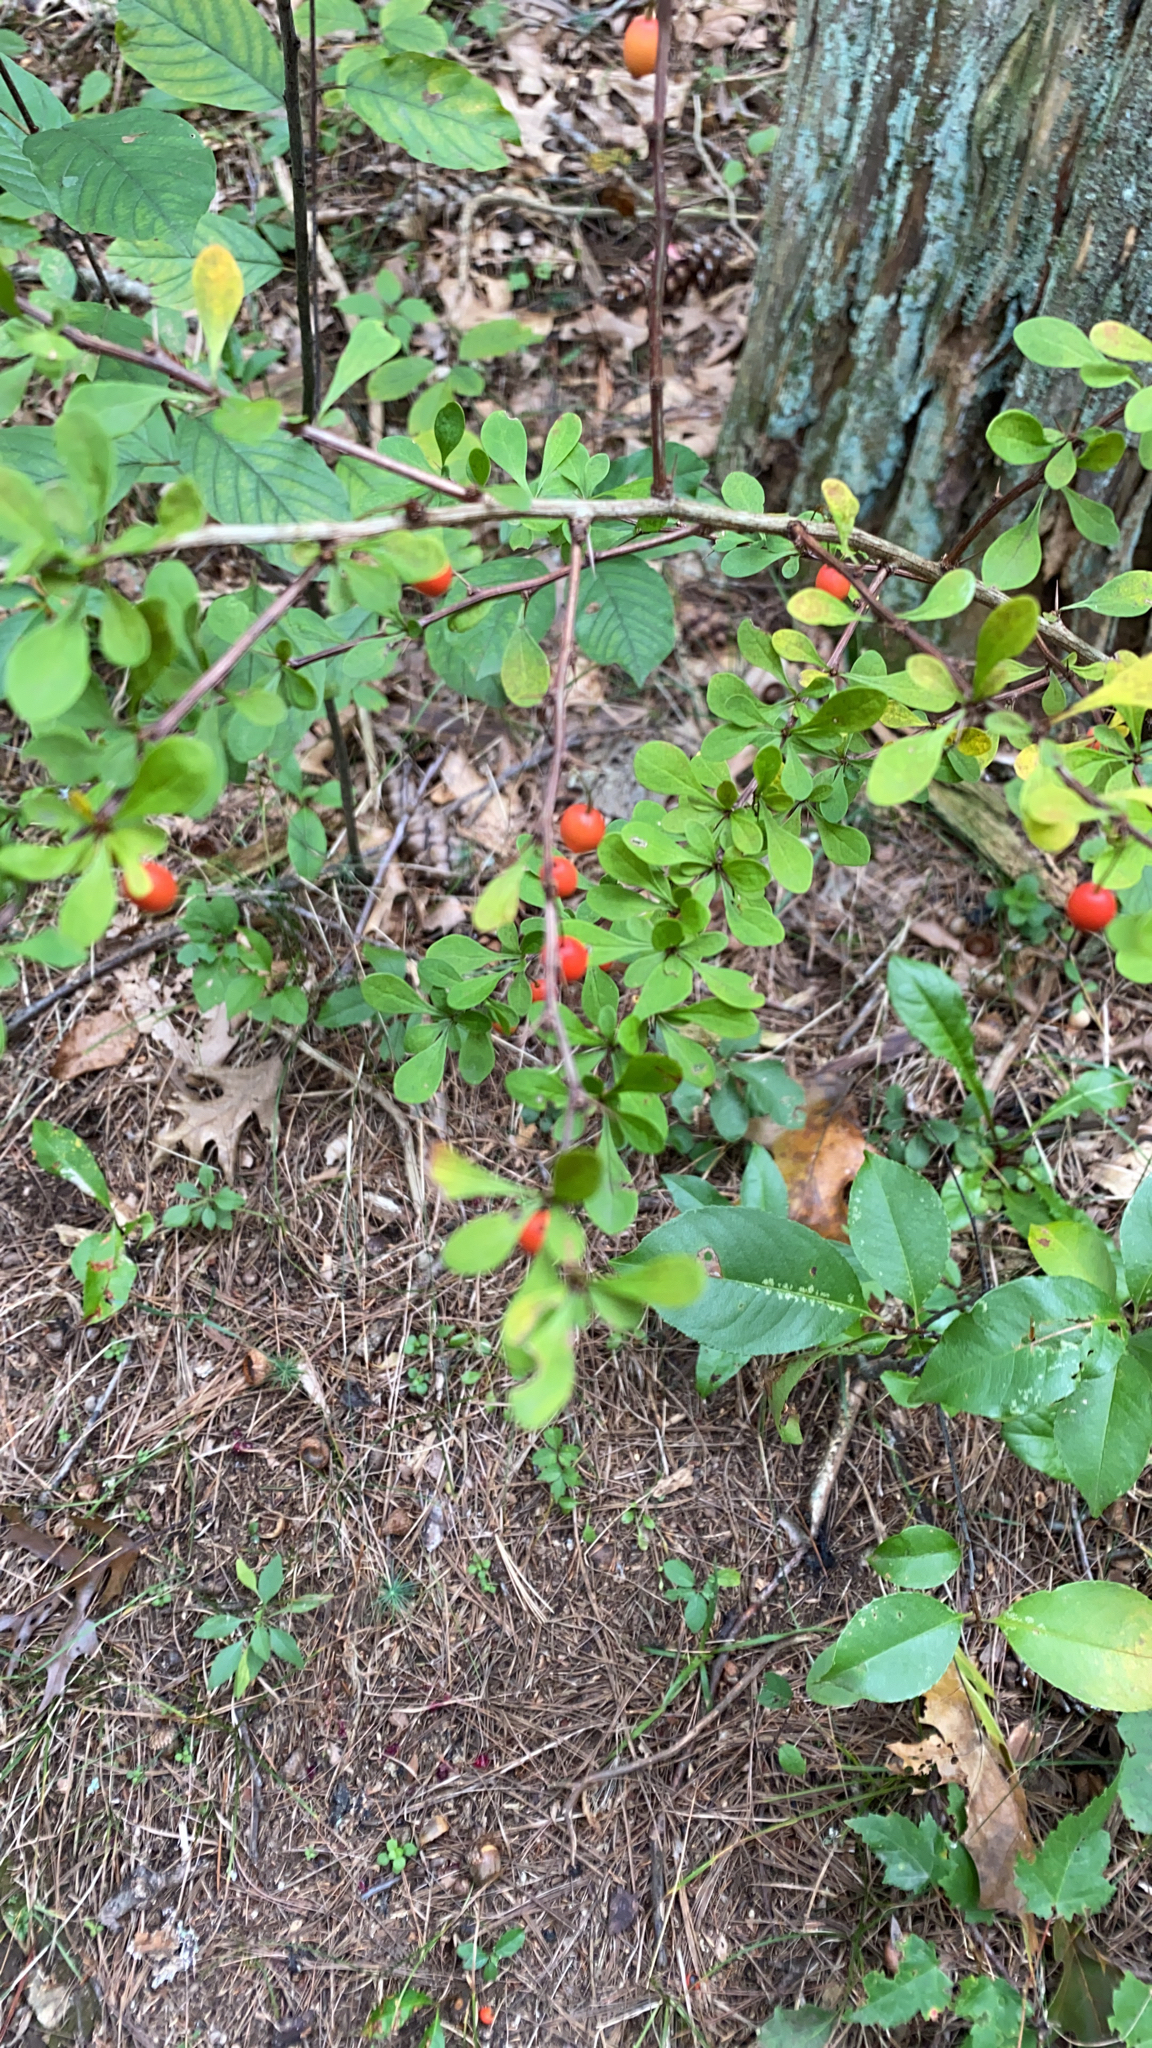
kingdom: Plantae
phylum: Tracheophyta
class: Magnoliopsida
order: Ranunculales
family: Berberidaceae
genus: Berberis
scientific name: Berberis thunbergii
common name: Japanese barberry
